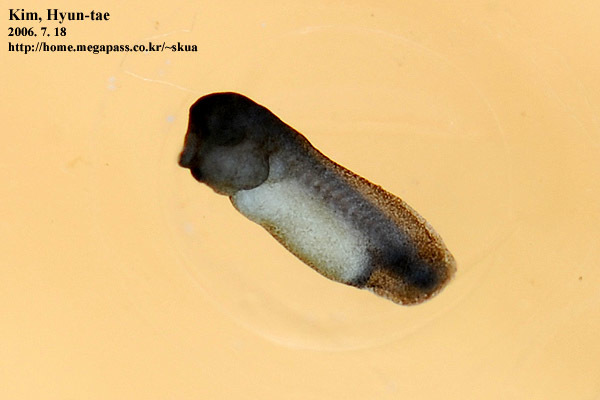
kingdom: Animalia
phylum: Chordata
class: Amphibia
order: Anura
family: Microhylidae
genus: Kaloula
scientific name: Kaloula borealis
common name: Boreal digging frog
